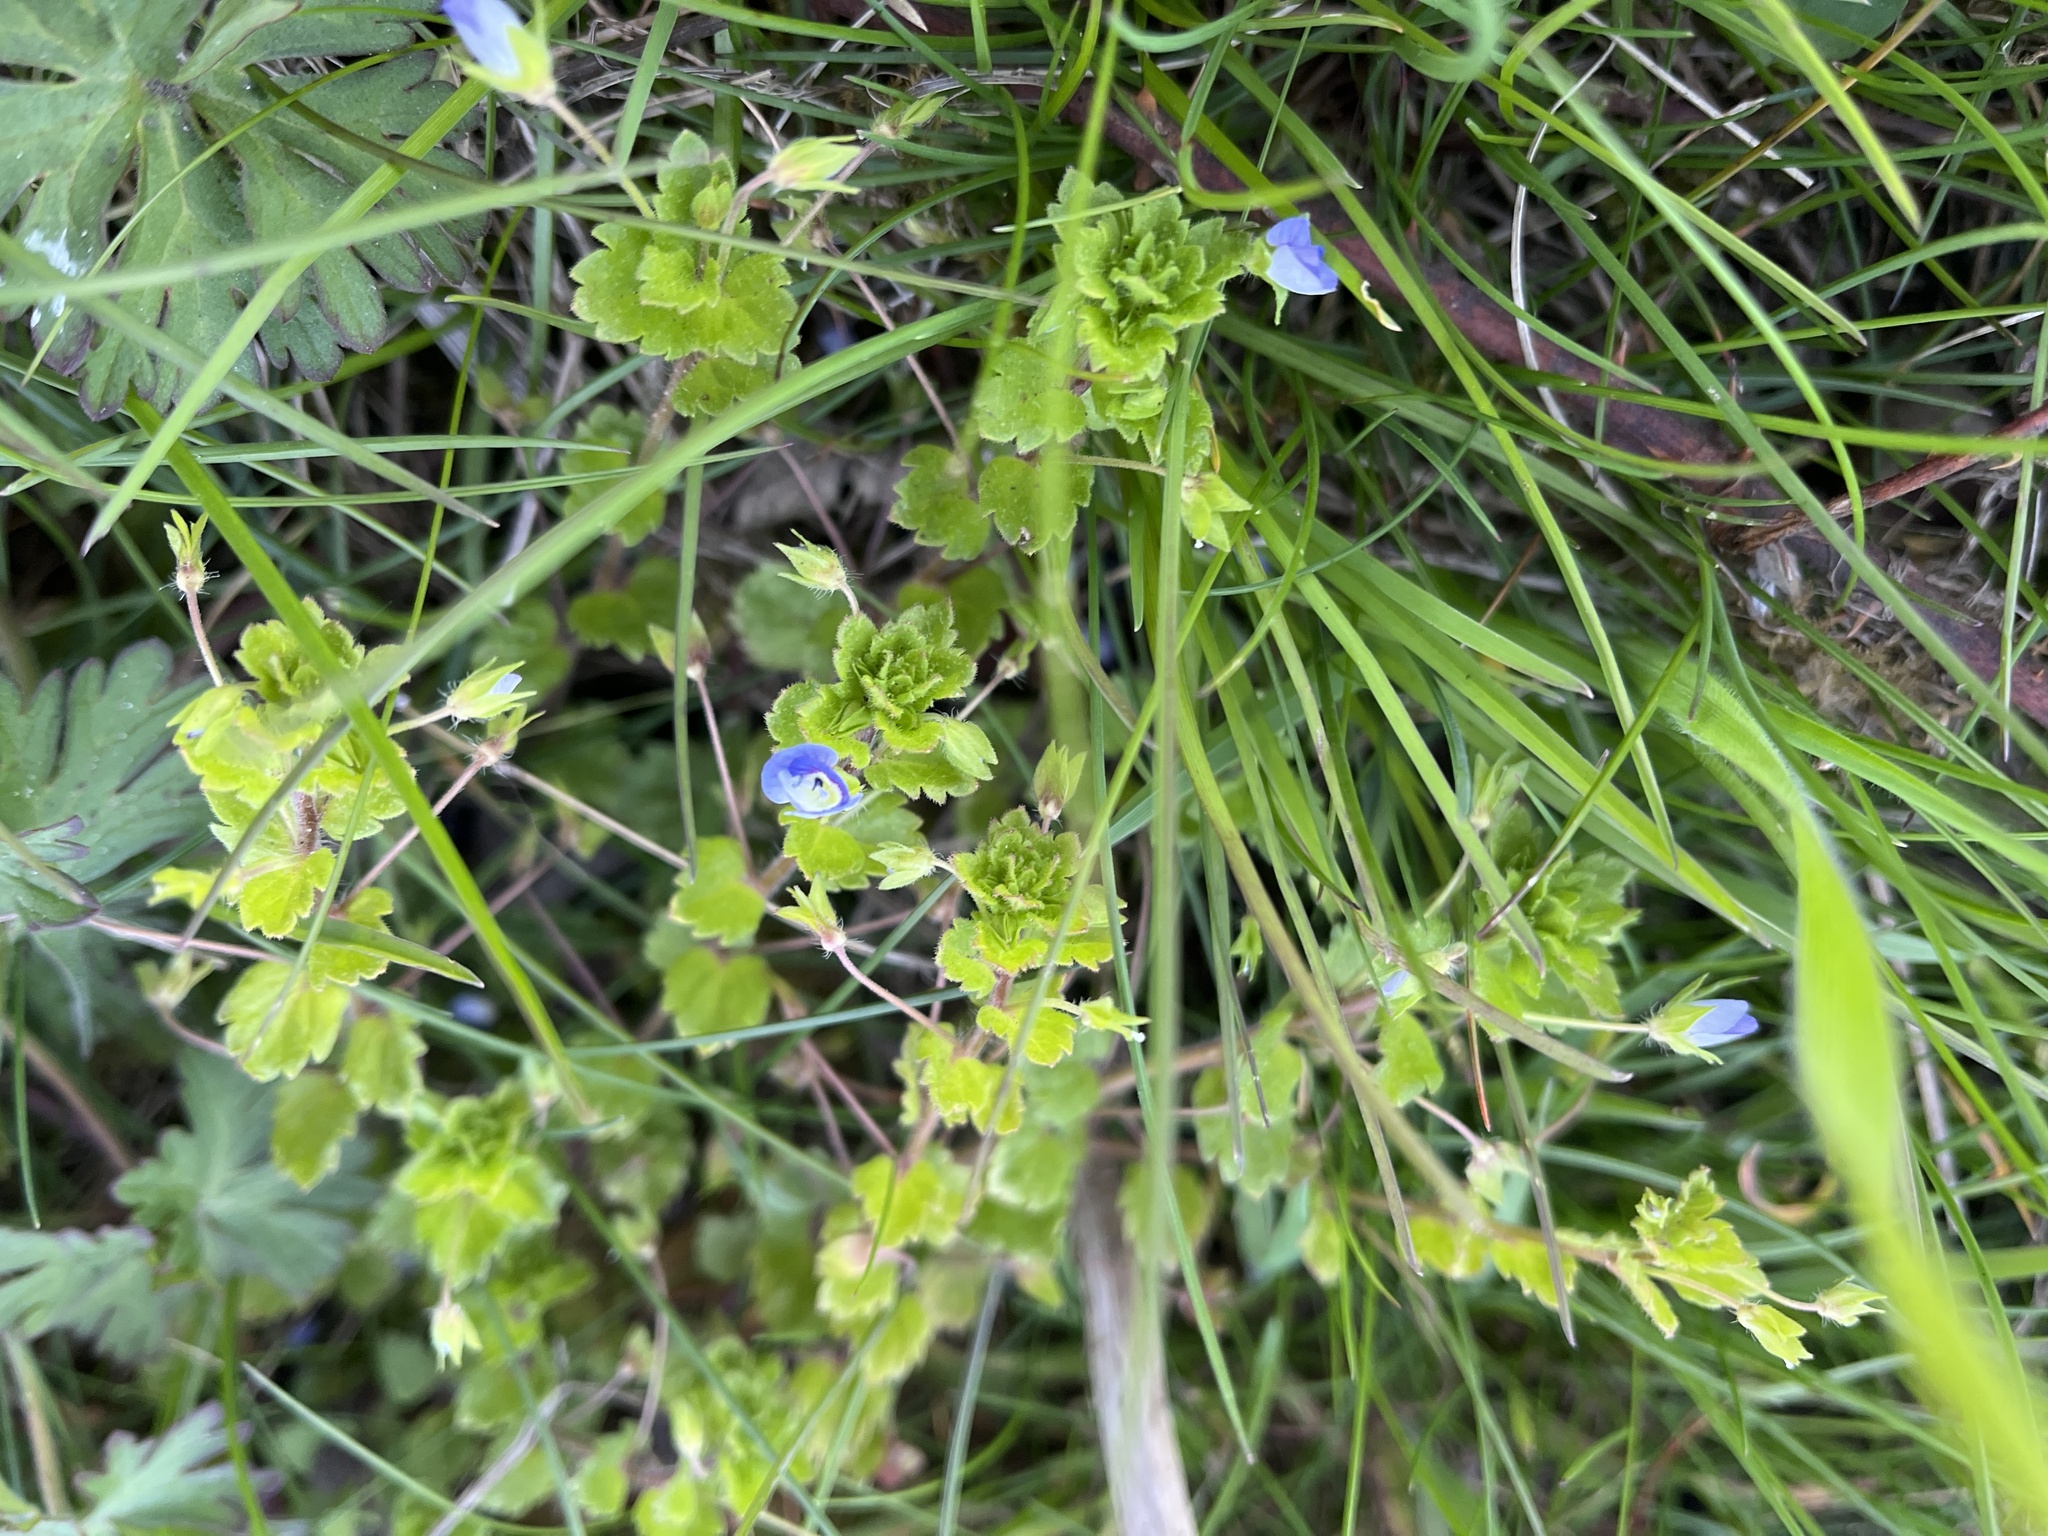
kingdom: Plantae
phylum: Tracheophyta
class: Magnoliopsida
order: Lamiales
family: Plantaginaceae
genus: Veronica
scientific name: Veronica persica
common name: Common field-speedwell
